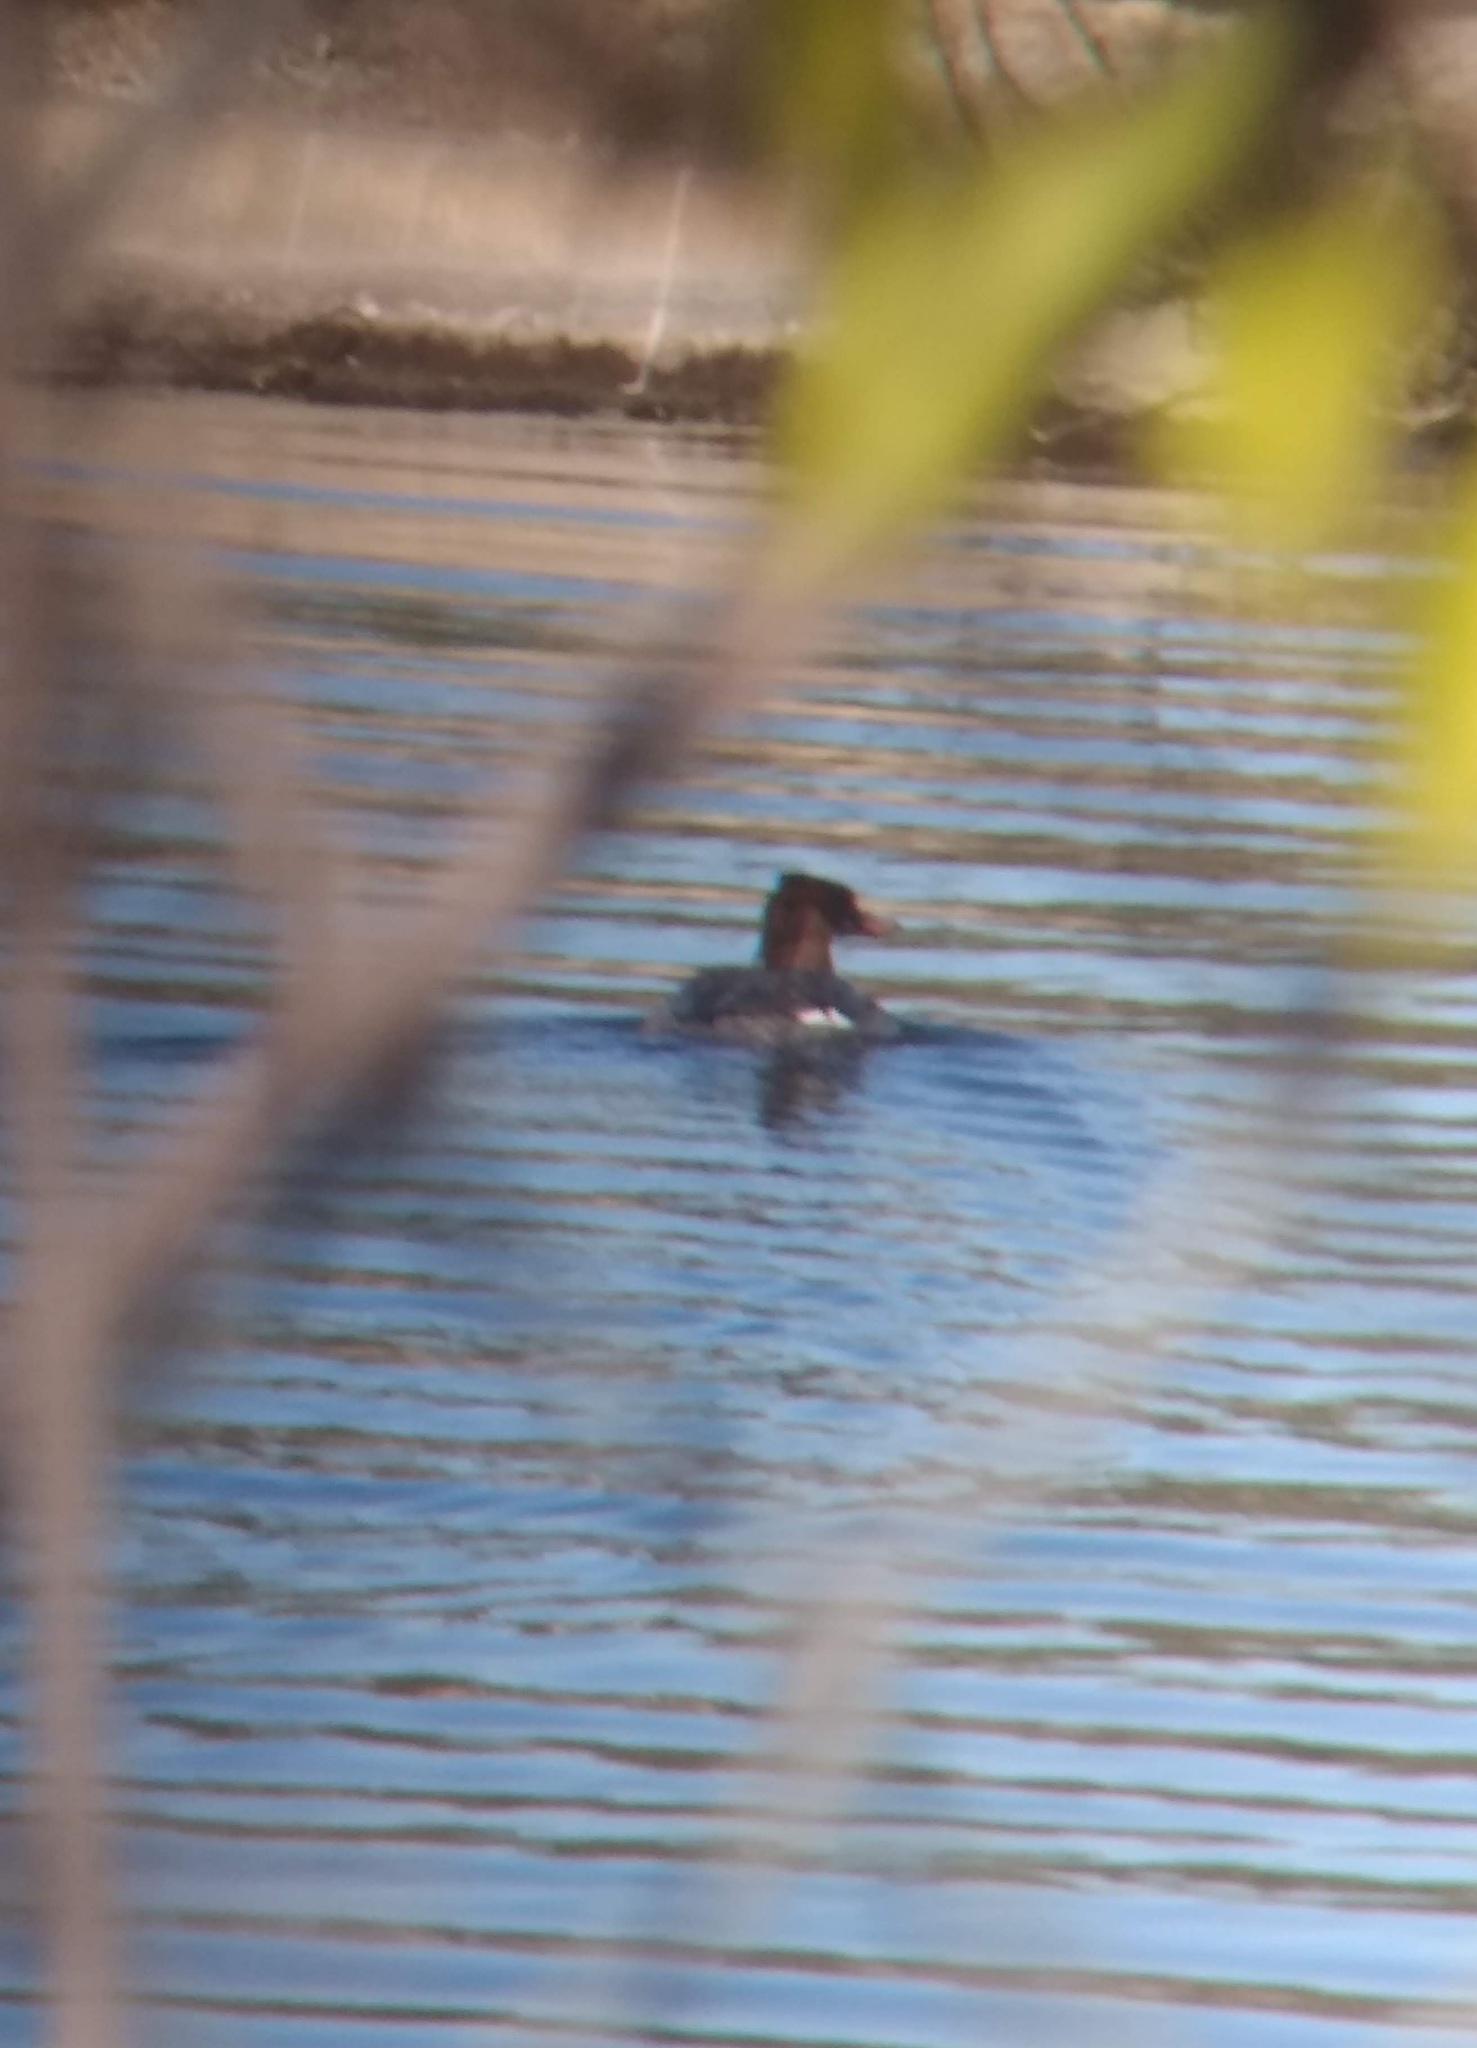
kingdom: Animalia
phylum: Chordata
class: Aves
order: Anseriformes
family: Anatidae
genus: Mergus
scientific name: Mergus merganser
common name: Common merganser
